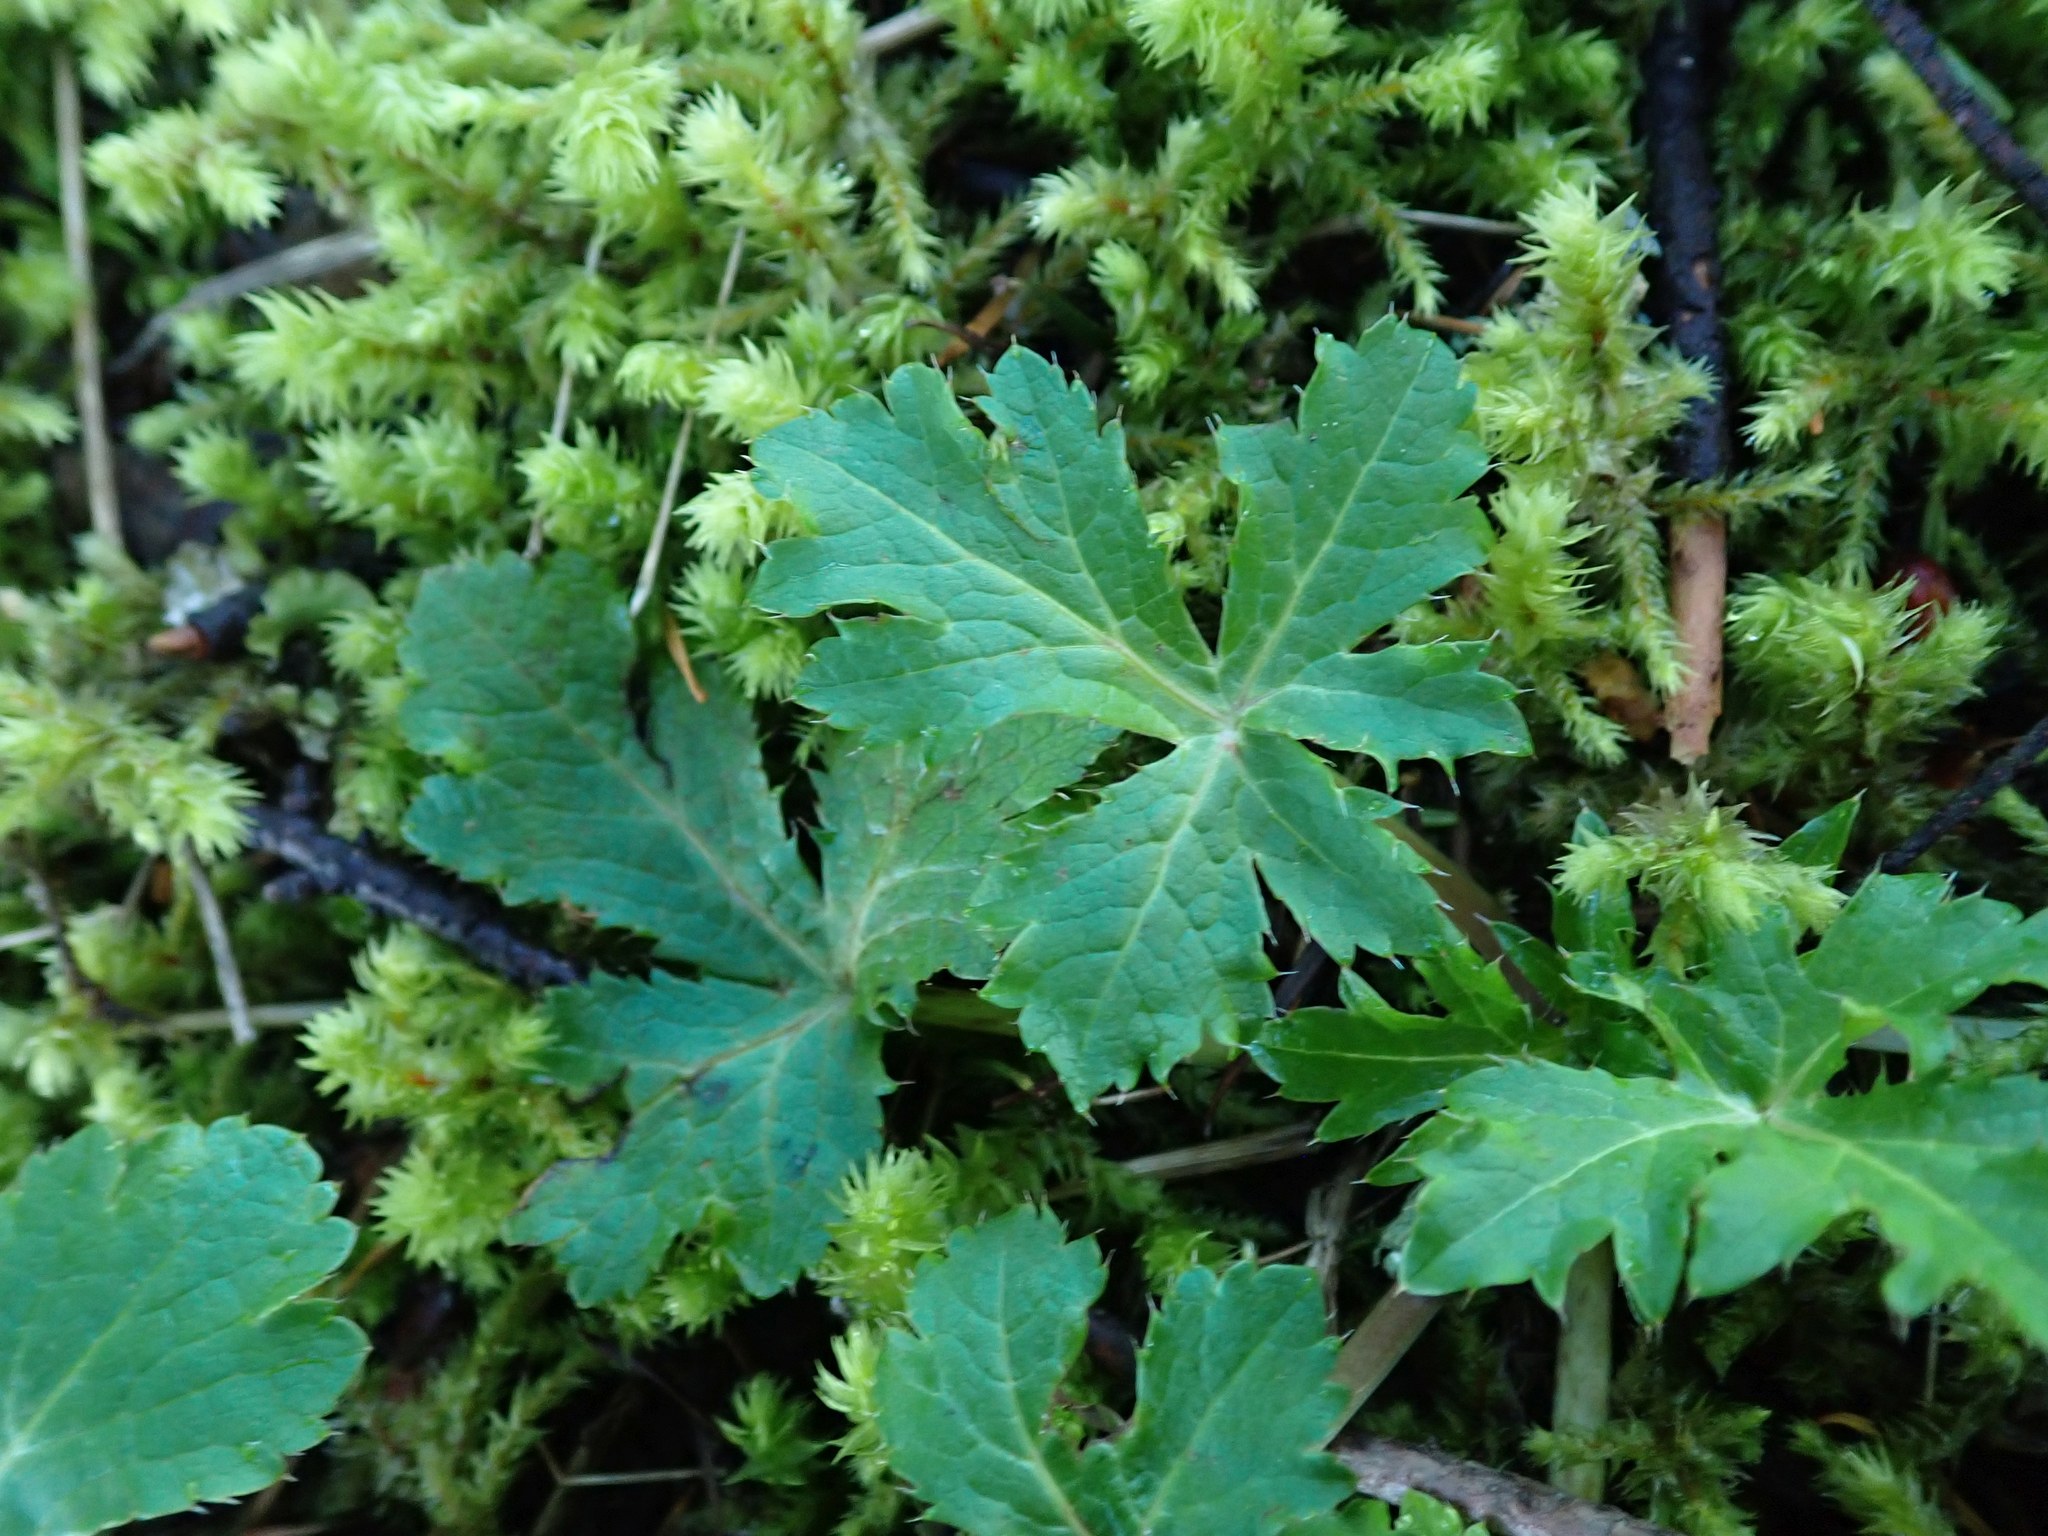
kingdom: Plantae
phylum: Tracheophyta
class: Magnoliopsida
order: Apiales
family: Apiaceae
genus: Sanicula
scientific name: Sanicula crassicaulis
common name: Western snakeroot
